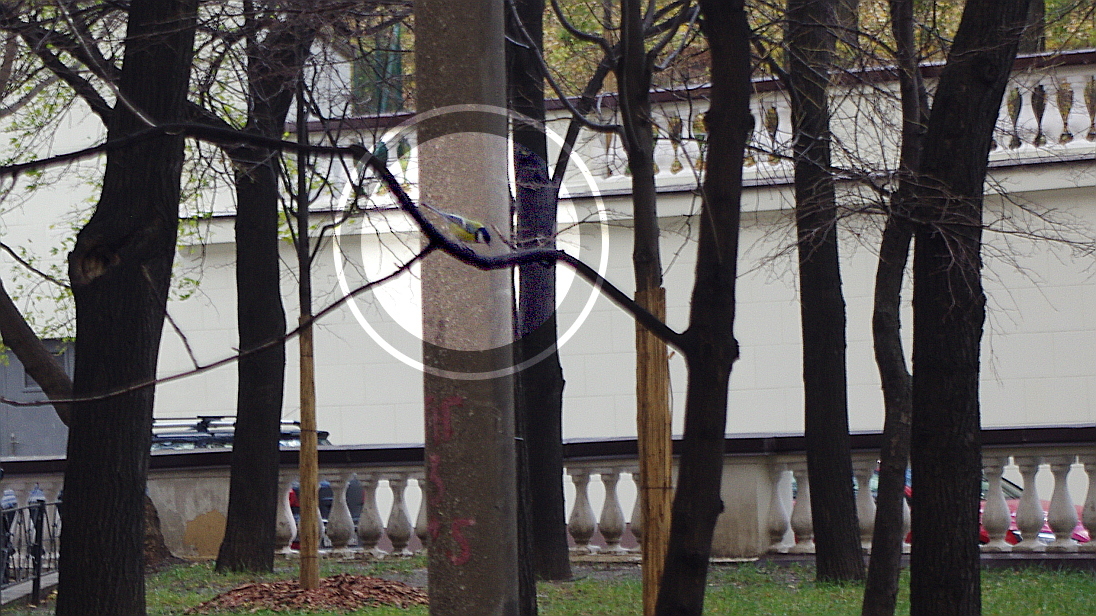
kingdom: Animalia
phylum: Chordata
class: Aves
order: Passeriformes
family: Paridae
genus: Parus
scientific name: Parus major
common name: Great tit
